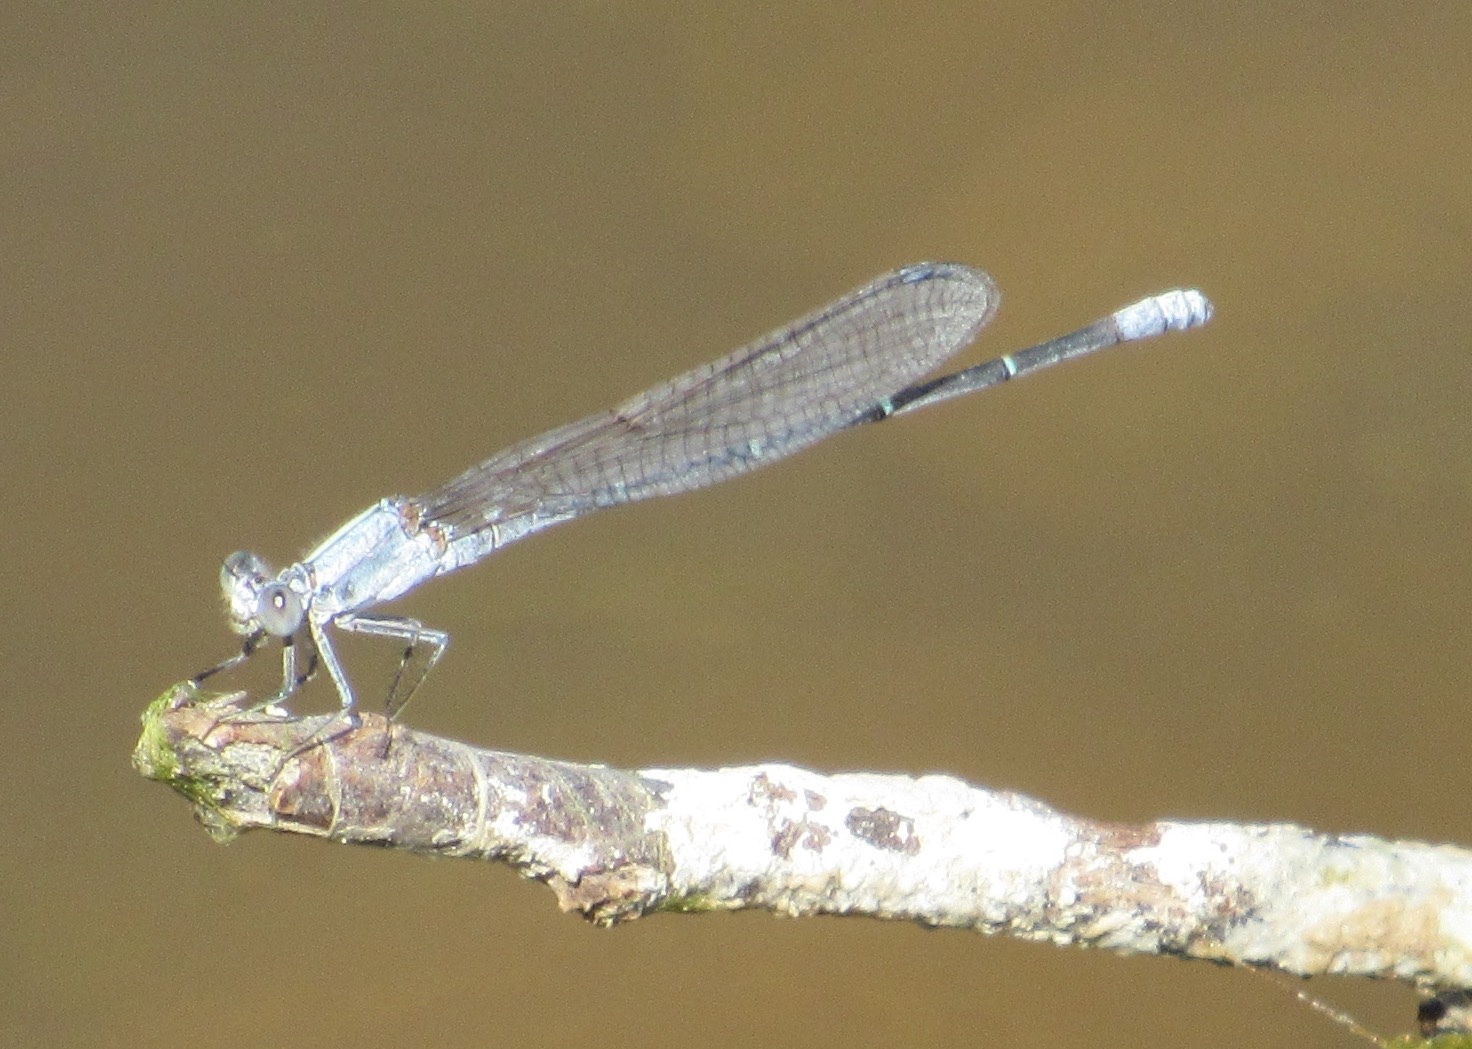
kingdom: Animalia
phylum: Arthropoda
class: Insecta
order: Odonata
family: Coenagrionidae
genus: Argia
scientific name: Argia moesta
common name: Powdered dancer
